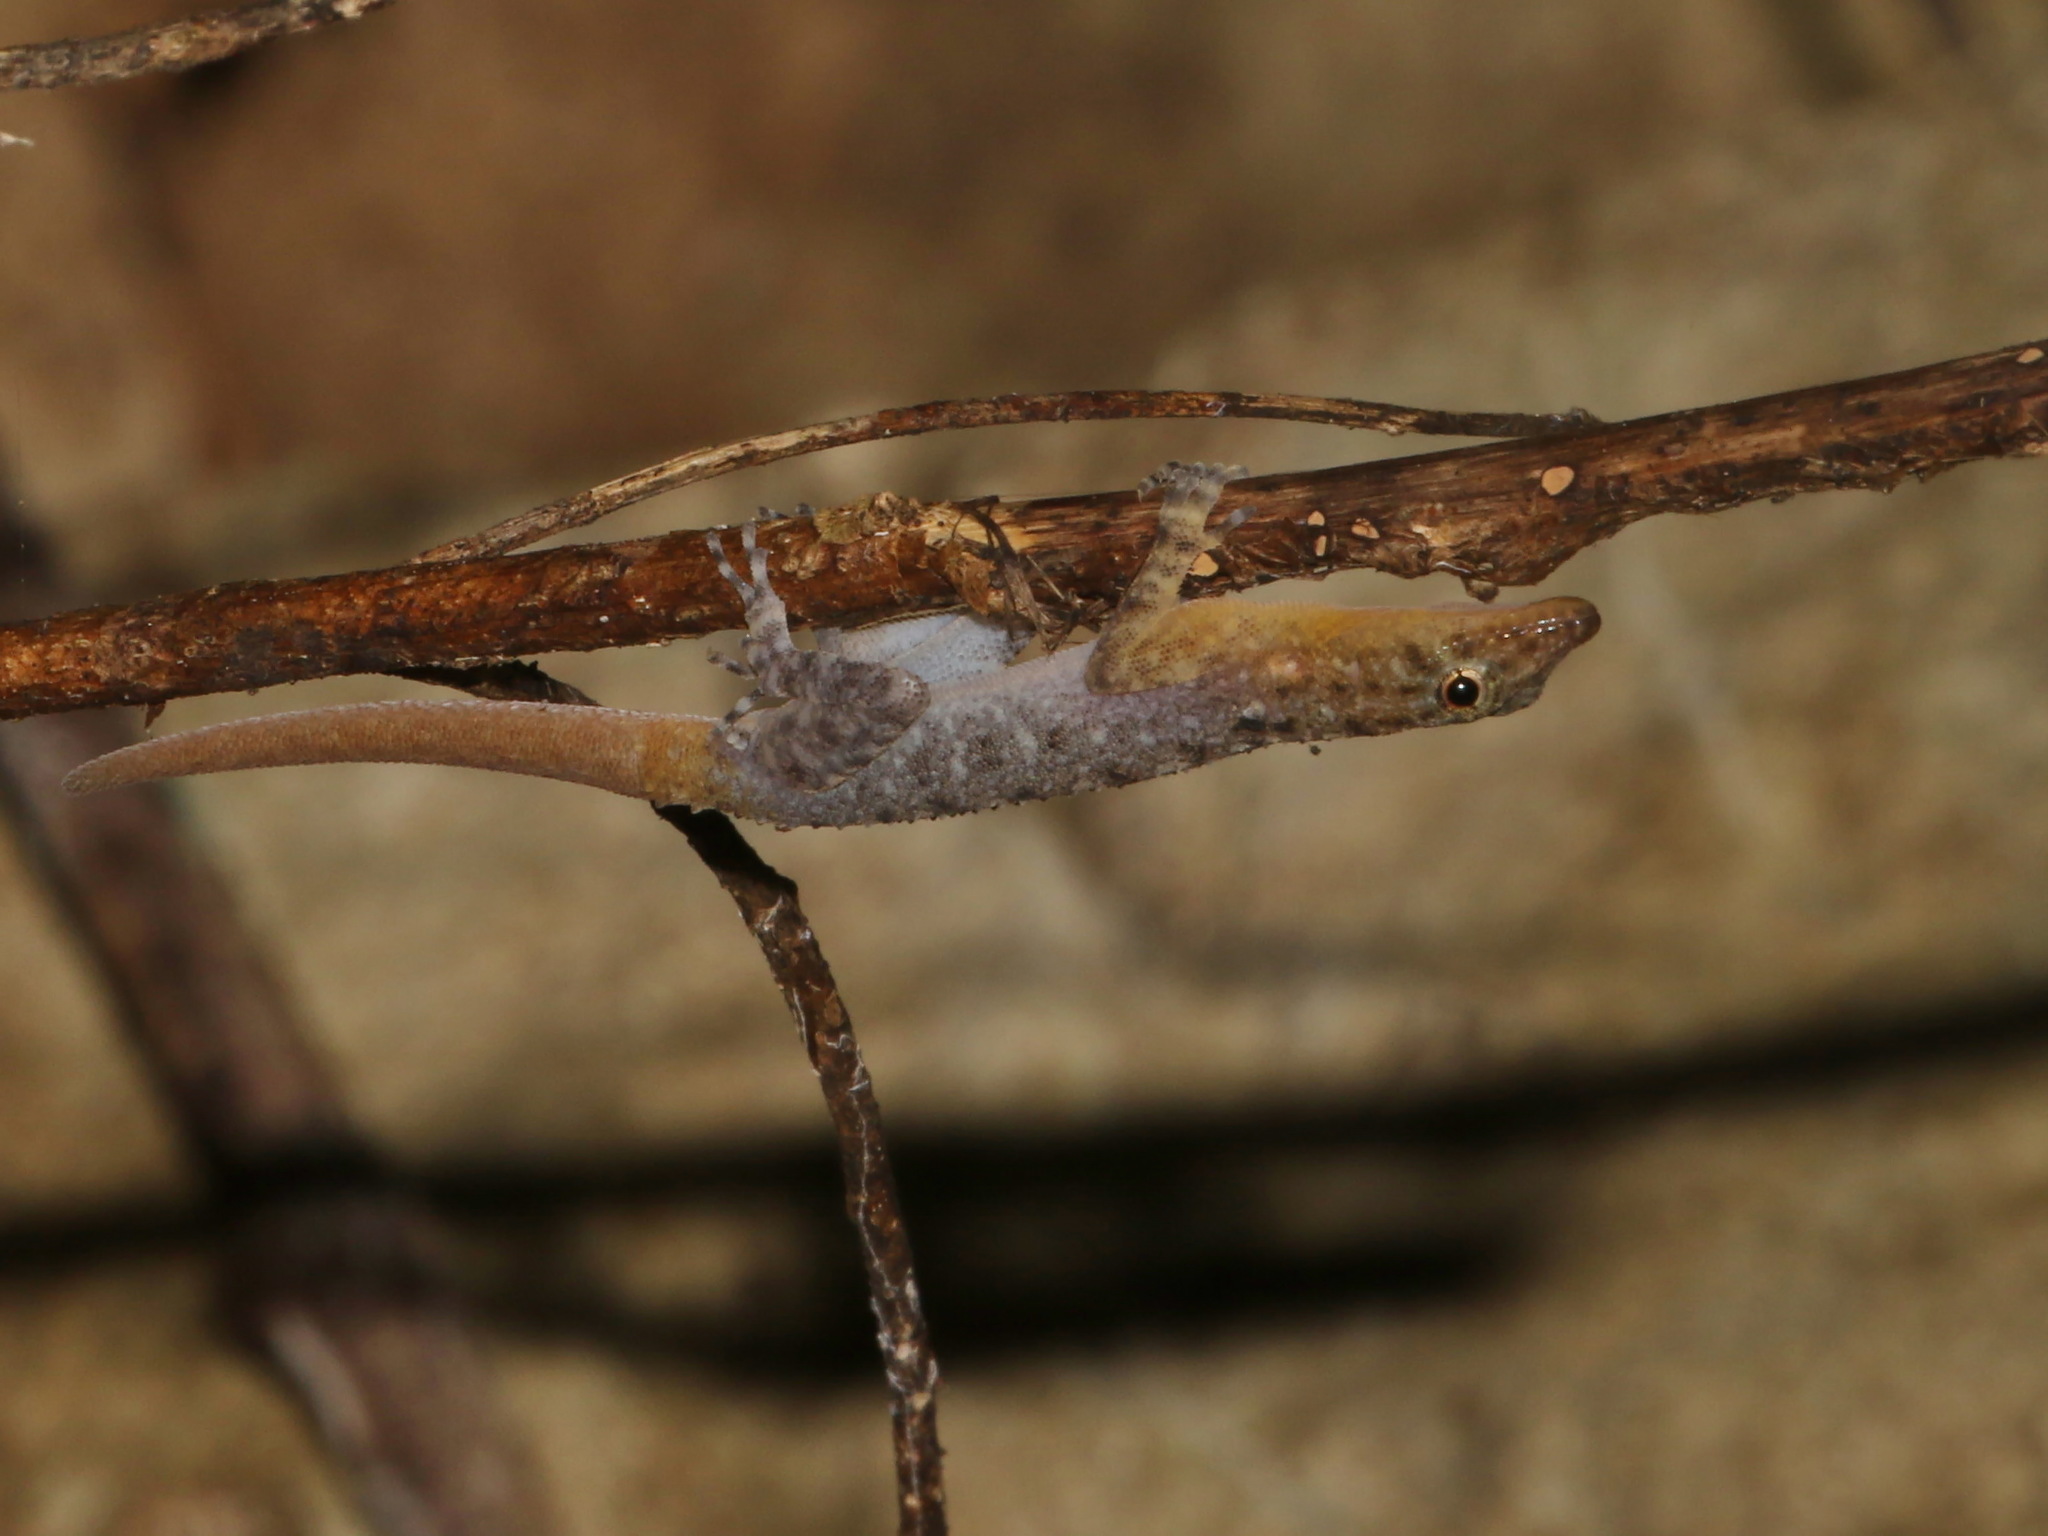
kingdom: Animalia
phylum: Chordata
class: Squamata
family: Gekkonidae
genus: Cnemaspis
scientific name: Cnemaspis huaseesom
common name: Orange-headed rock gecko
